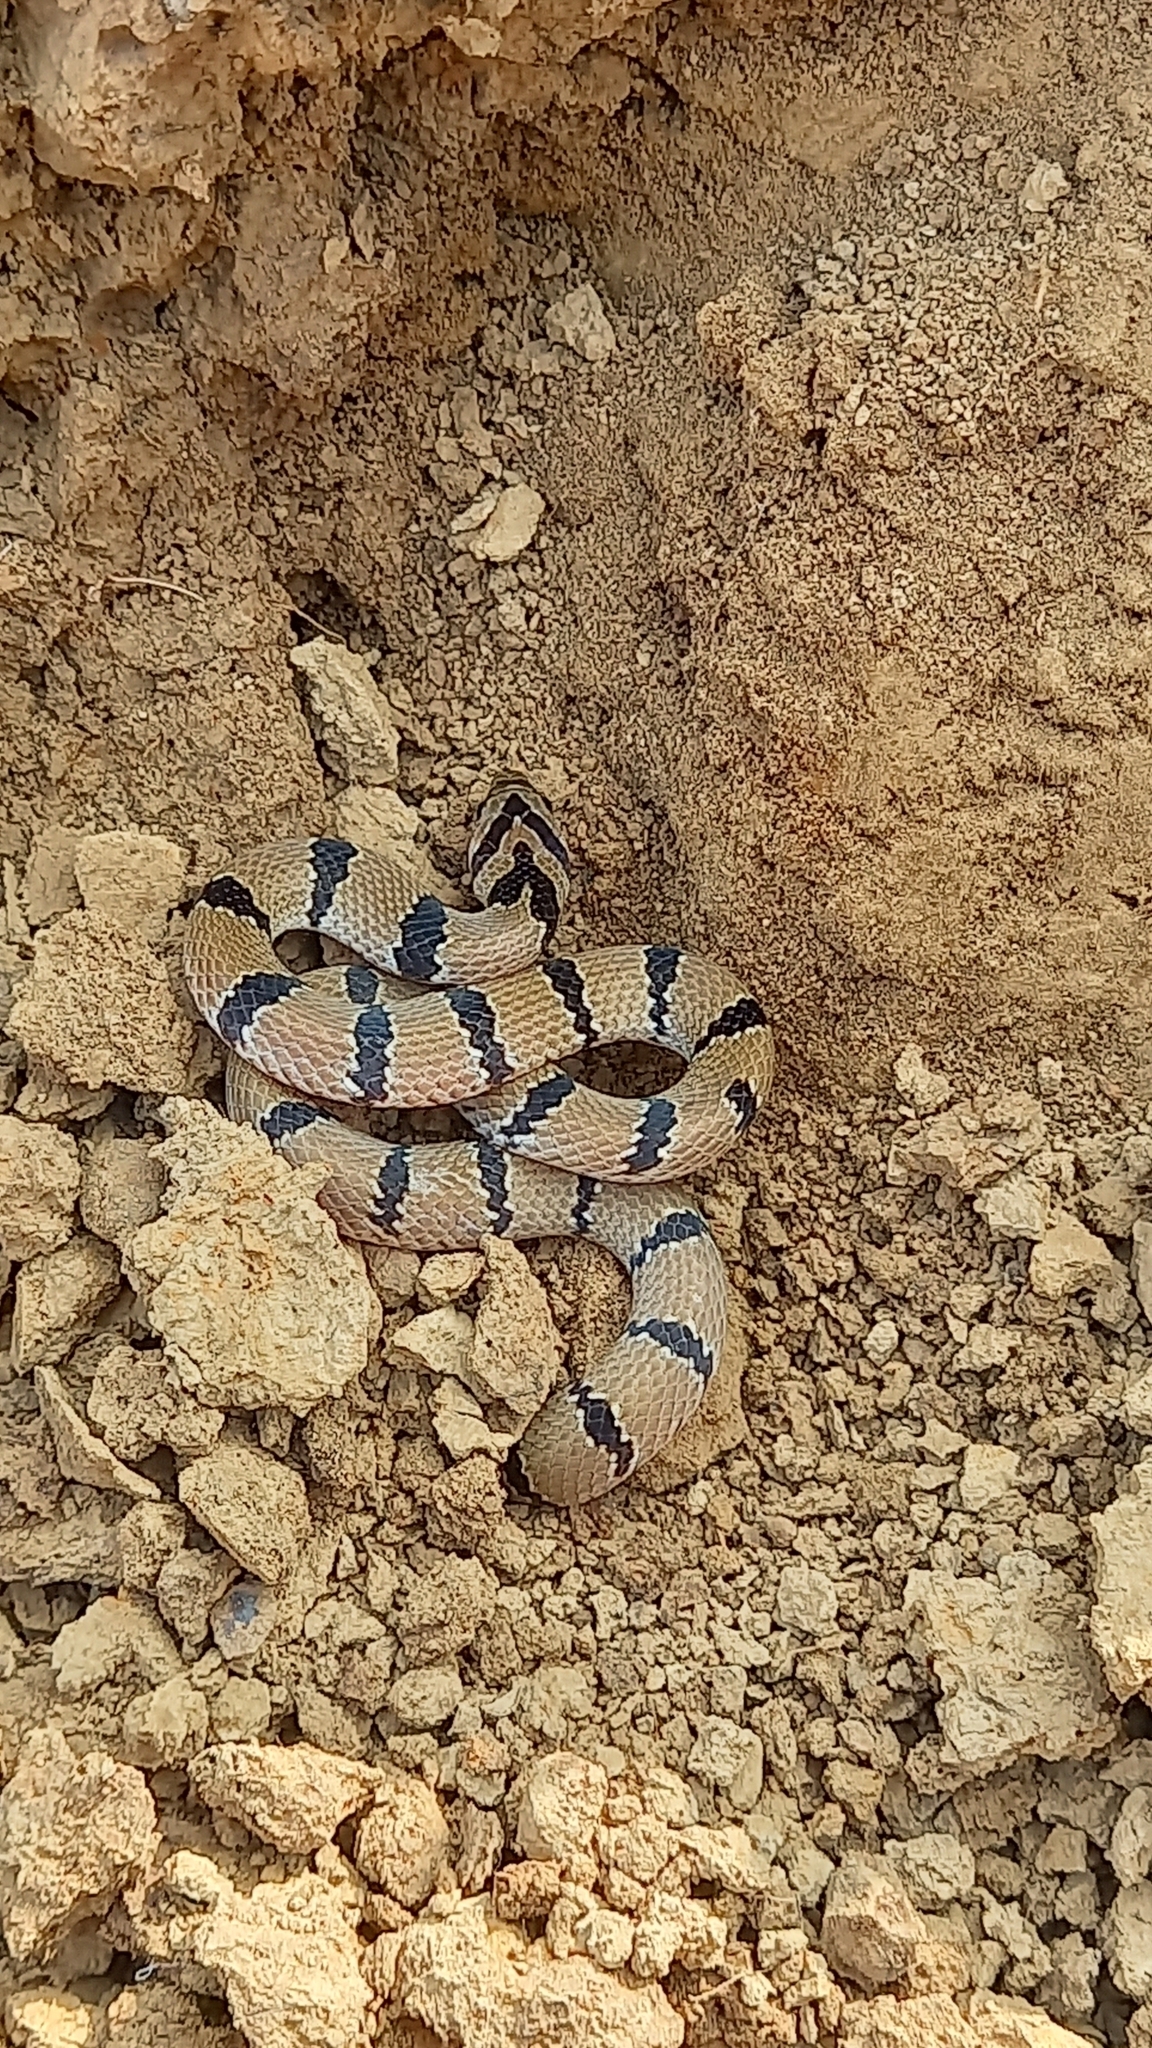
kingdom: Animalia
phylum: Chordata
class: Squamata
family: Colubridae
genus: Oligodon
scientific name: Oligodon
